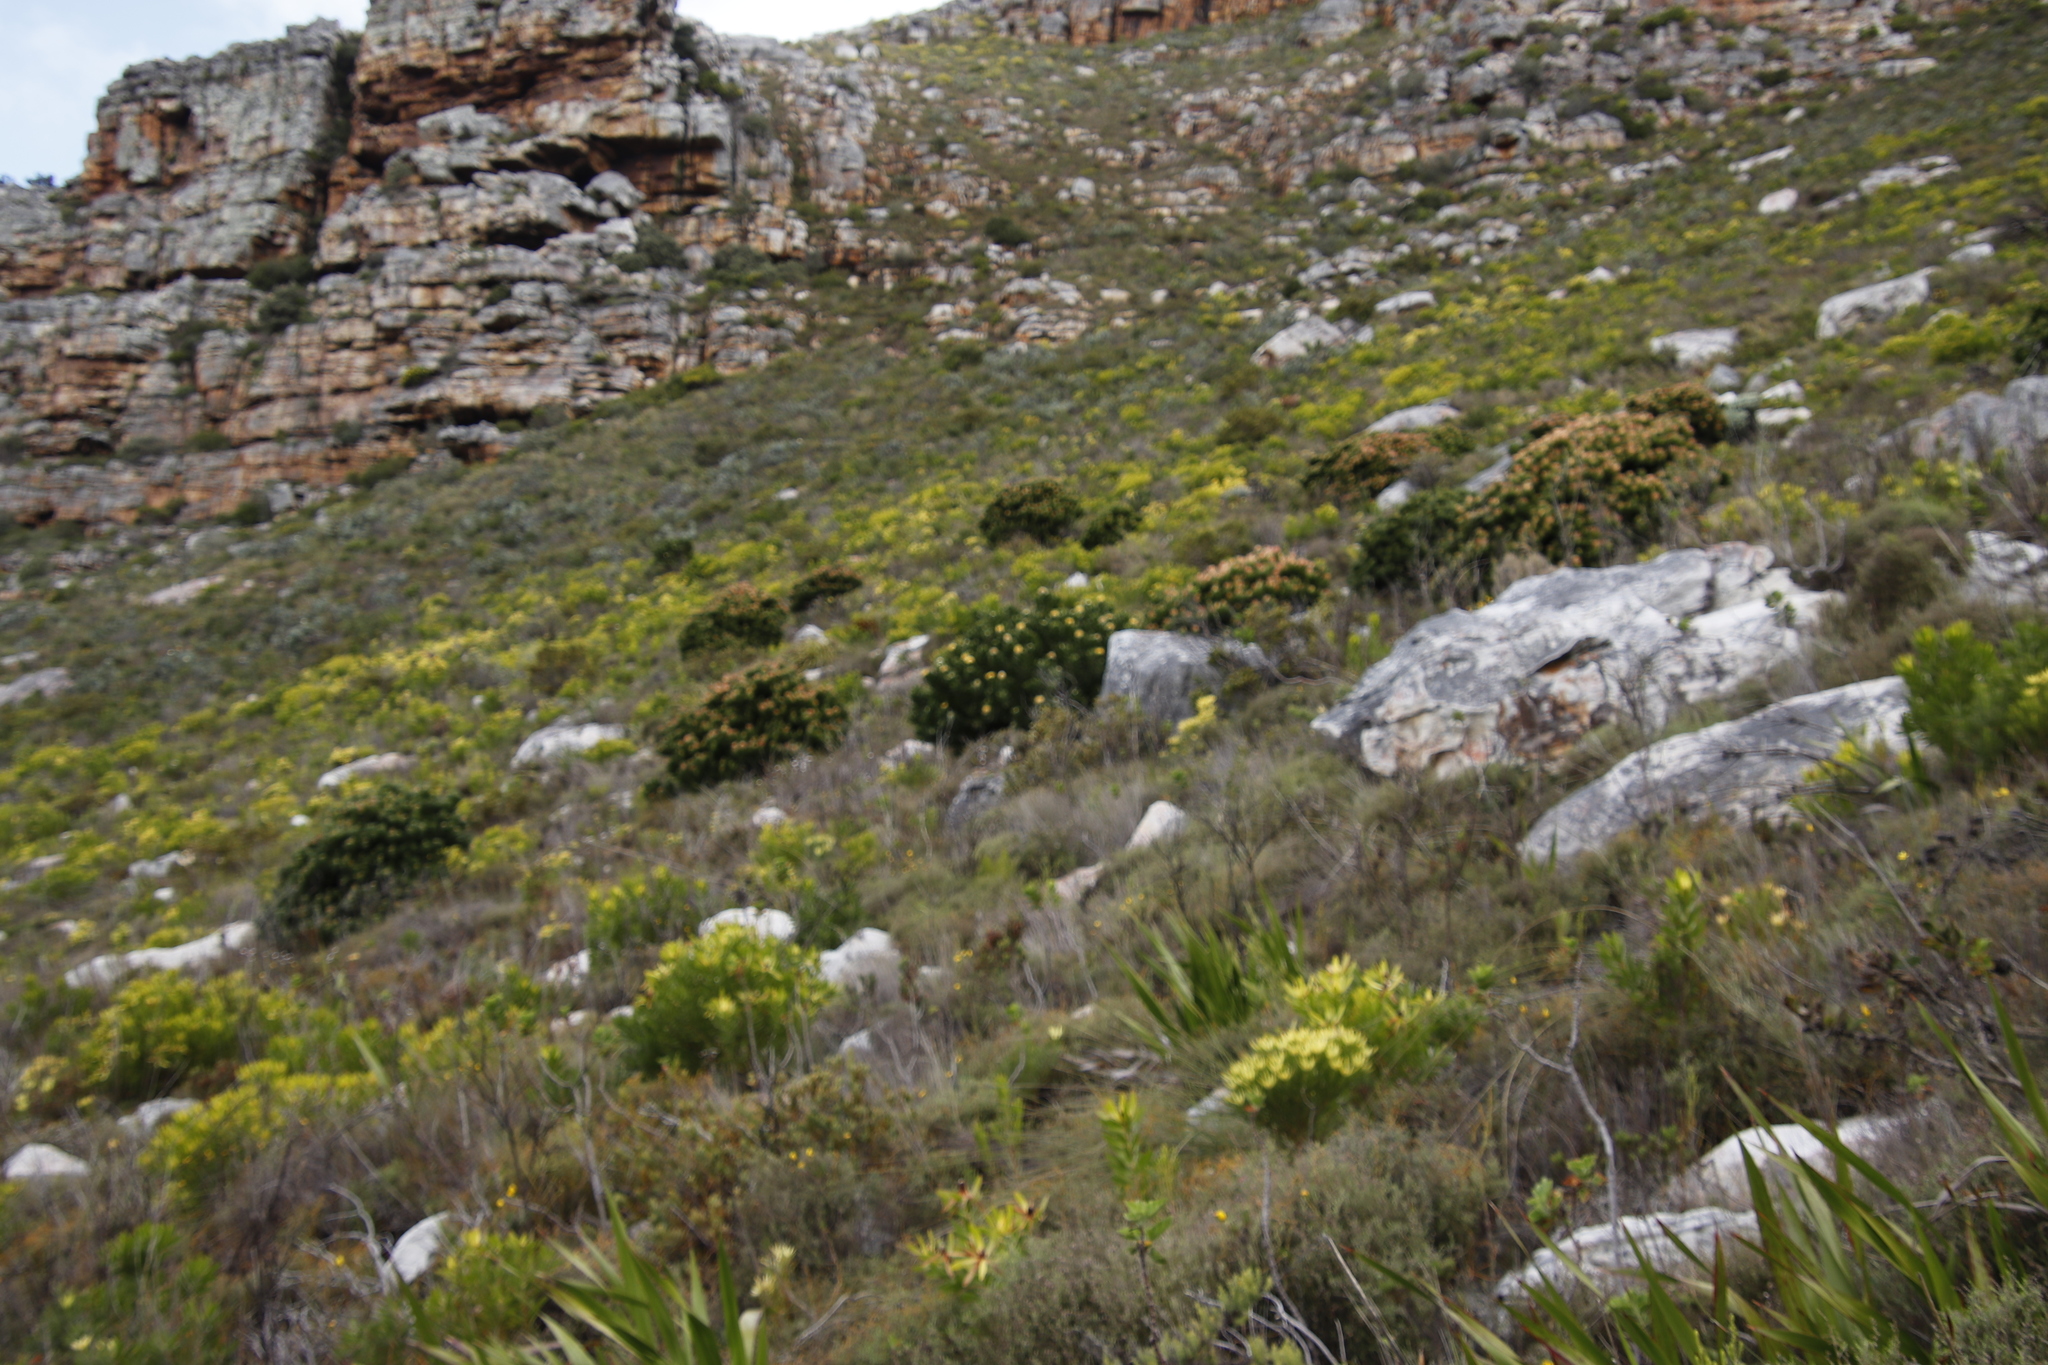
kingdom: Plantae
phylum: Tracheophyta
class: Magnoliopsida
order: Proteales
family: Proteaceae
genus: Mimetes
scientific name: Mimetes fimbriifolius
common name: Fringed bottlebrush
